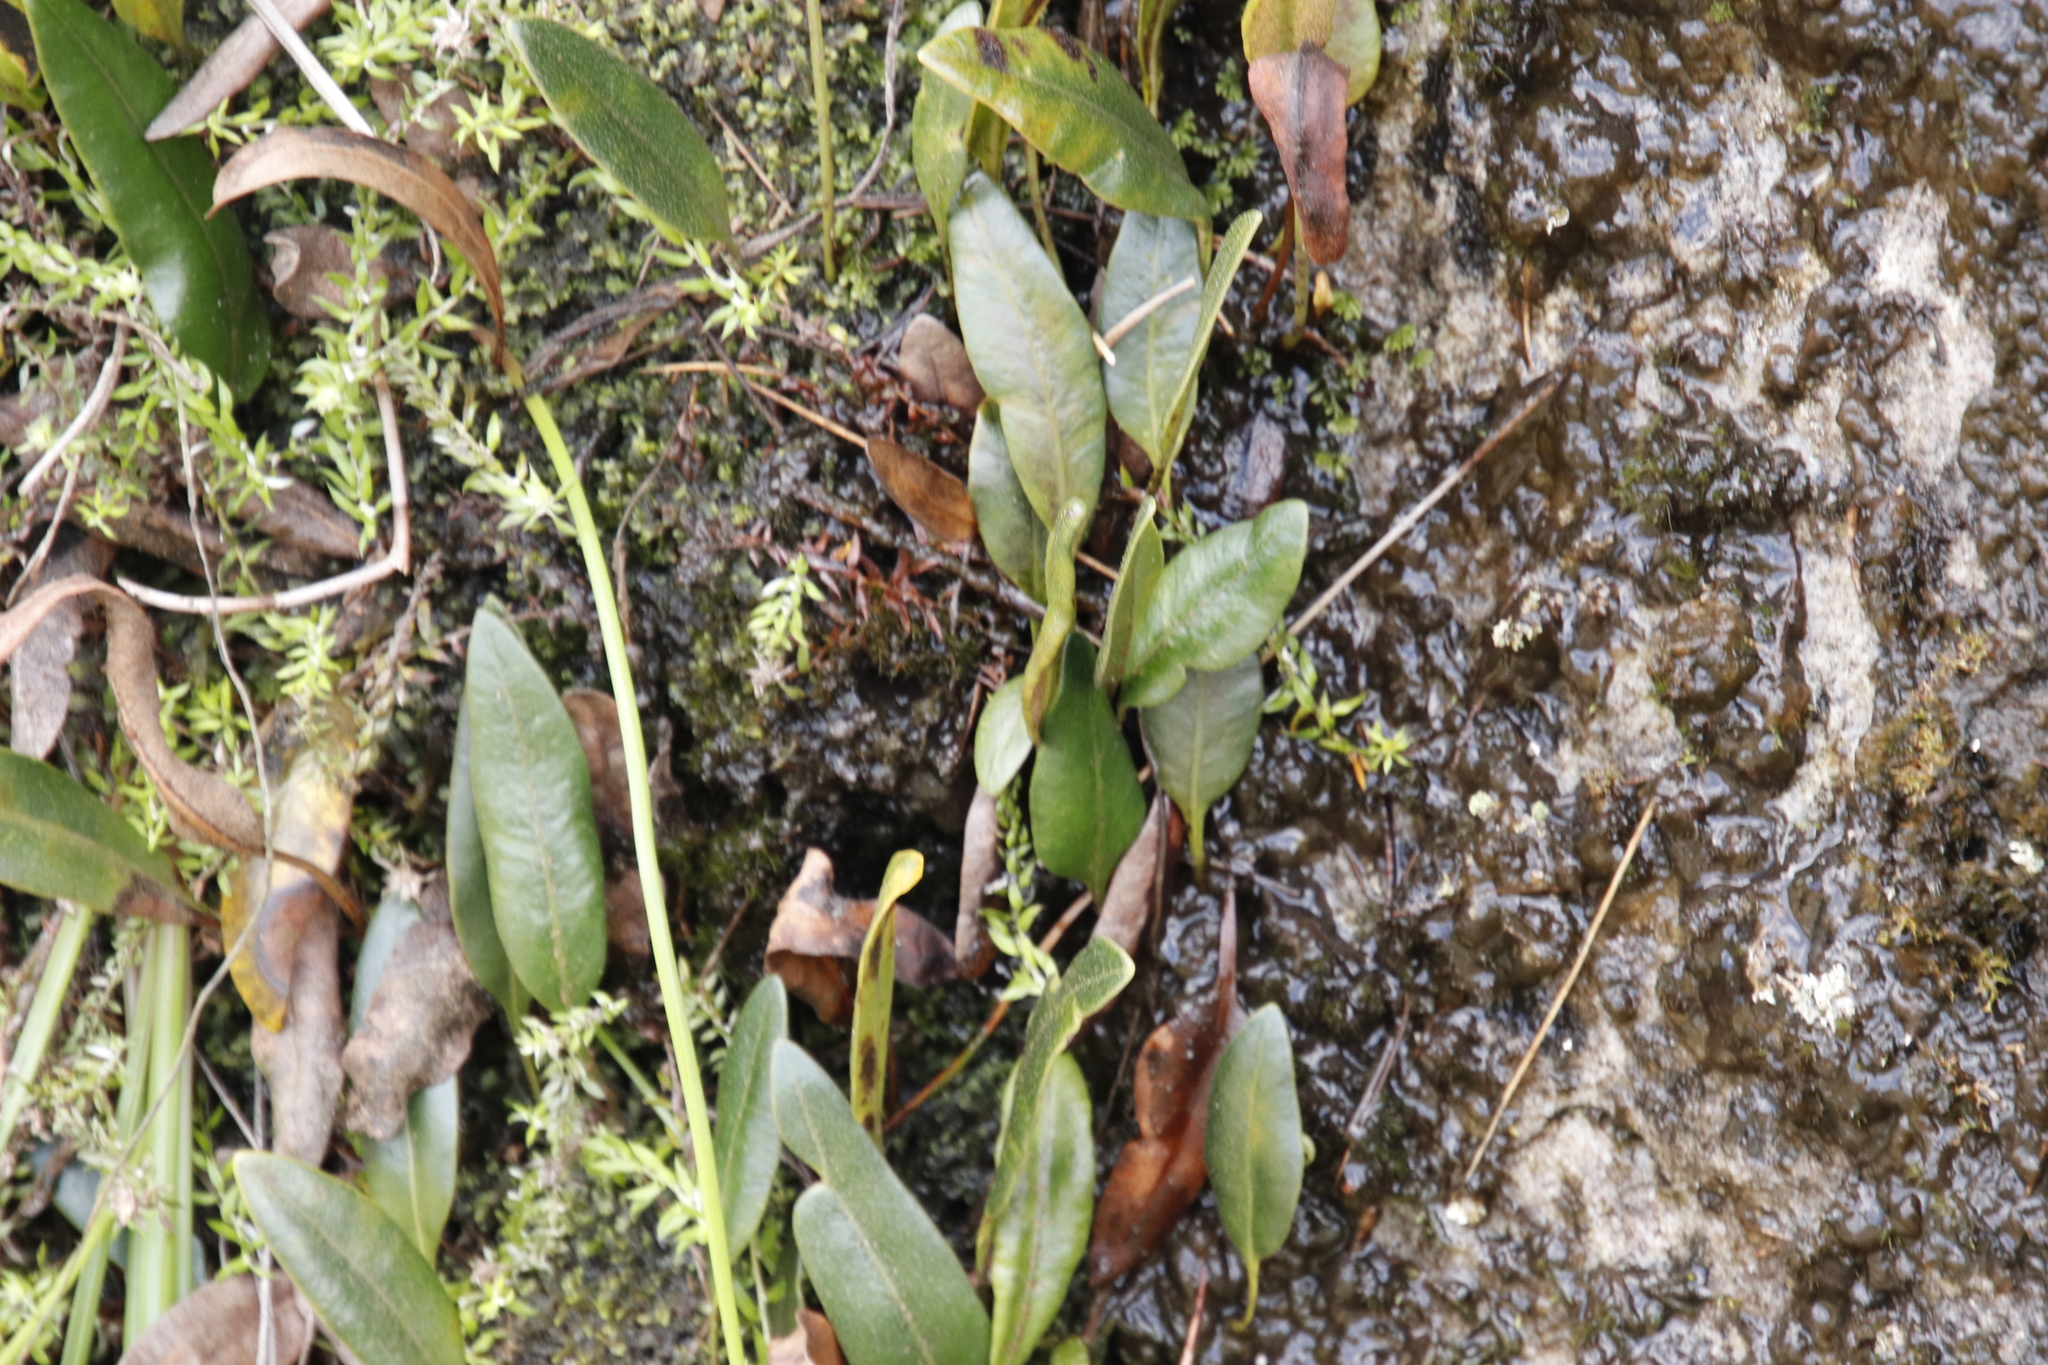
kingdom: Plantae
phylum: Tracheophyta
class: Polypodiopsida
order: Polypodiales
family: Dryopteridaceae
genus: Elaphoglossum
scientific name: Elaphoglossum conforme
